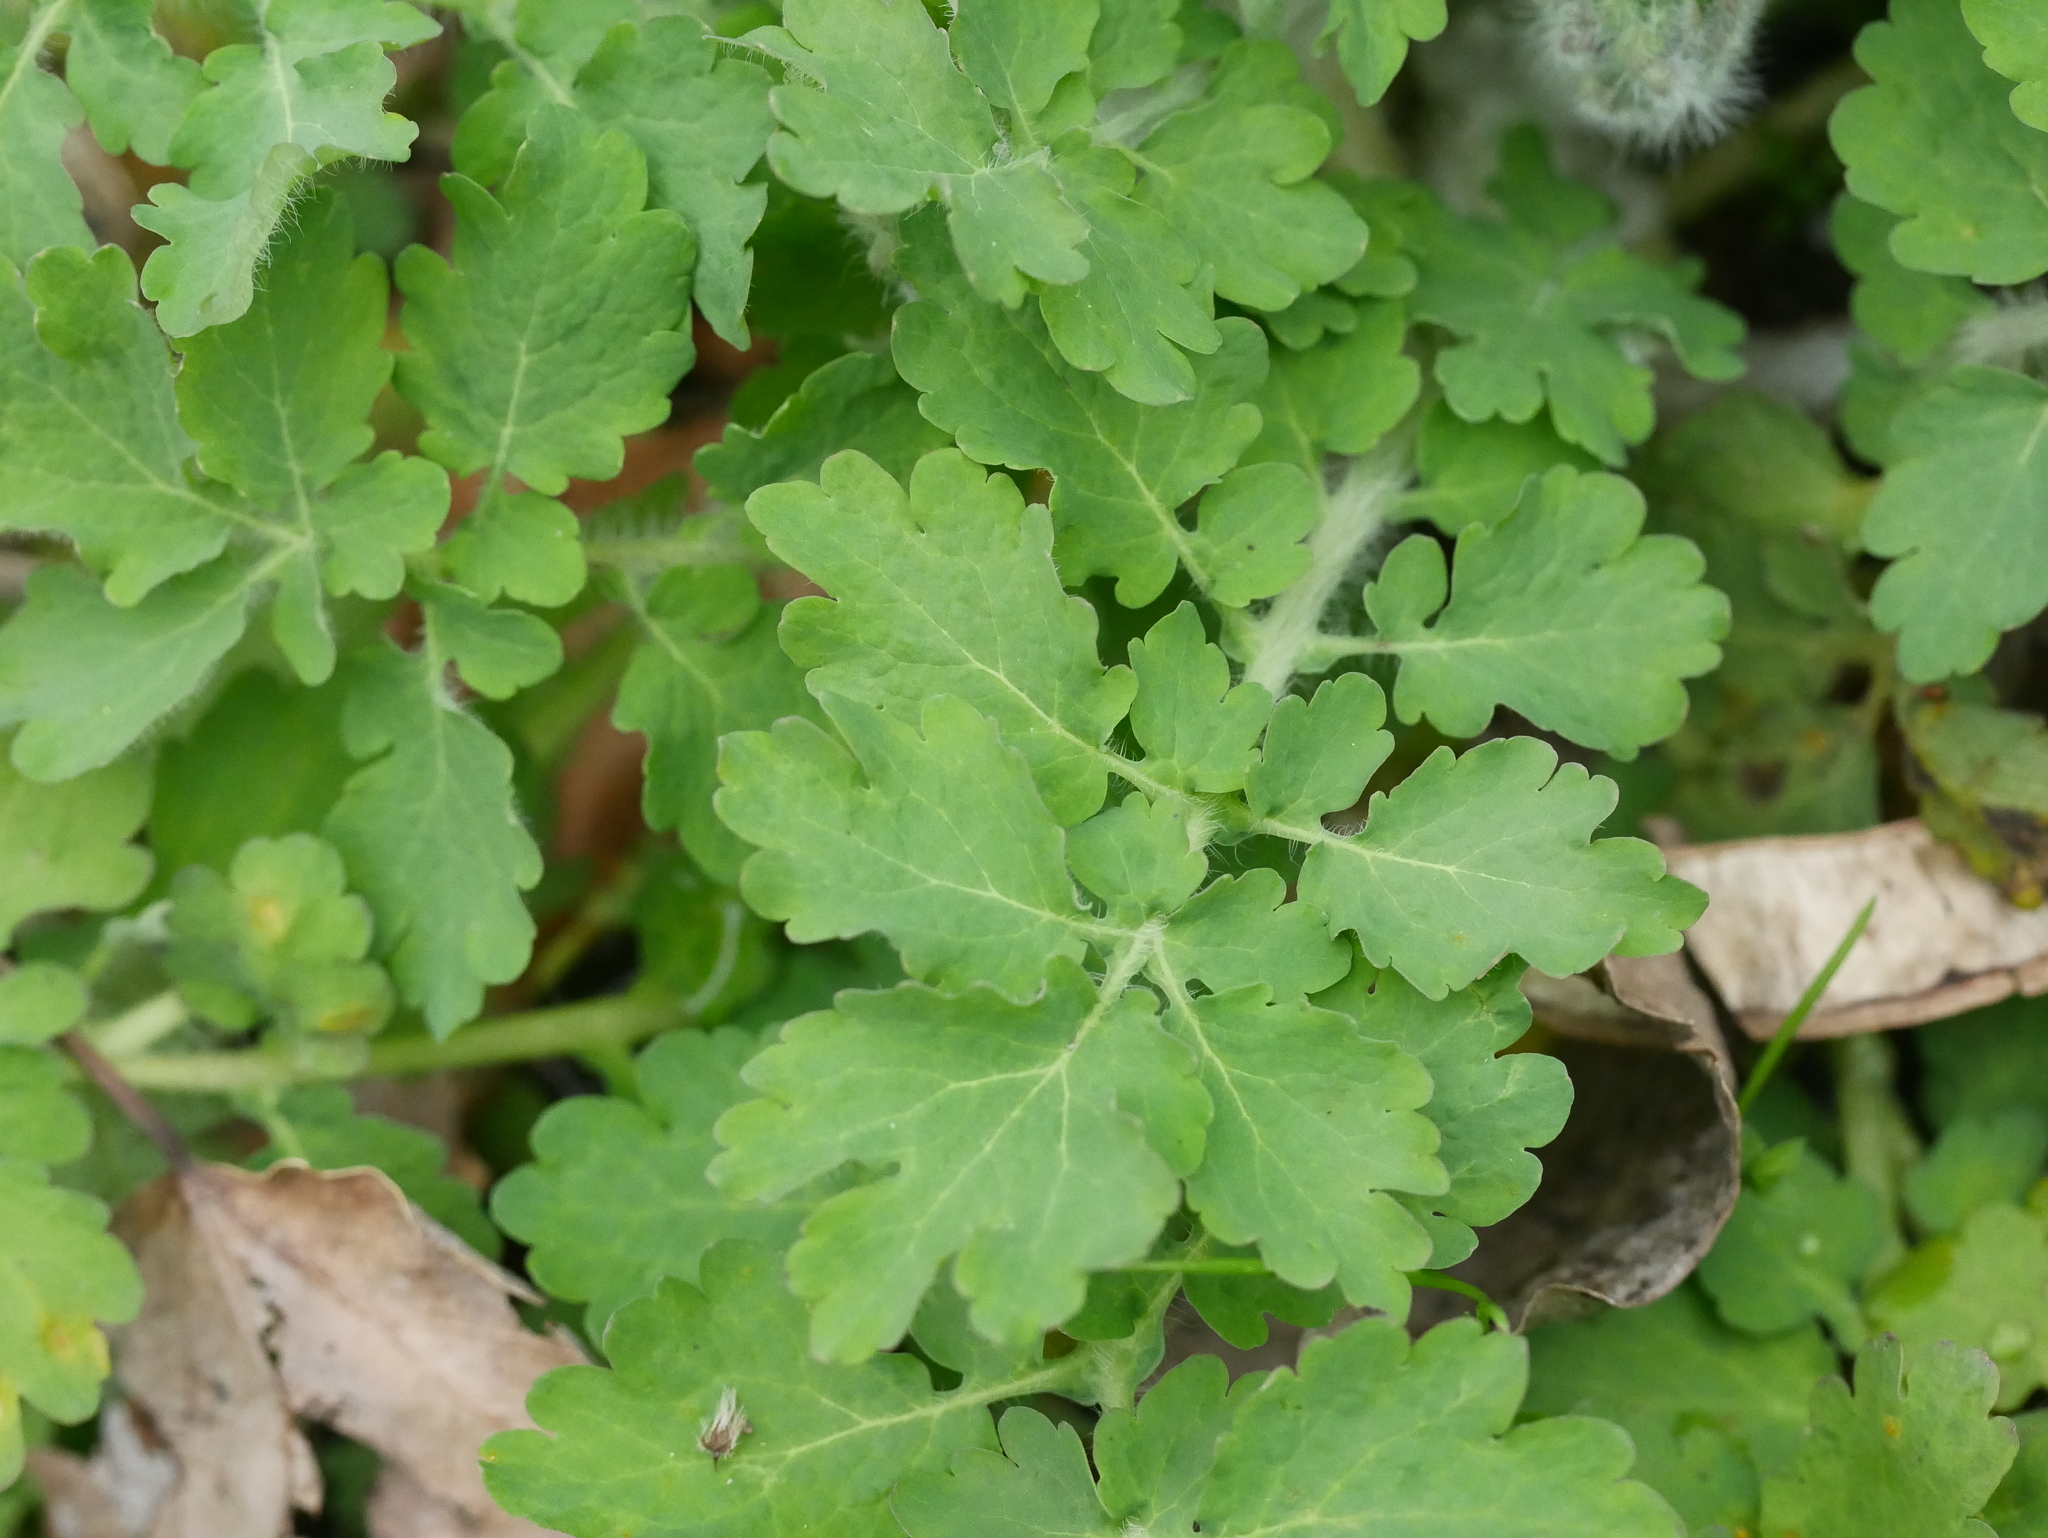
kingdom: Plantae
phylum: Tracheophyta
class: Magnoliopsida
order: Ranunculales
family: Papaveraceae
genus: Chelidonium
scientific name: Chelidonium majus
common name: Greater celandine
